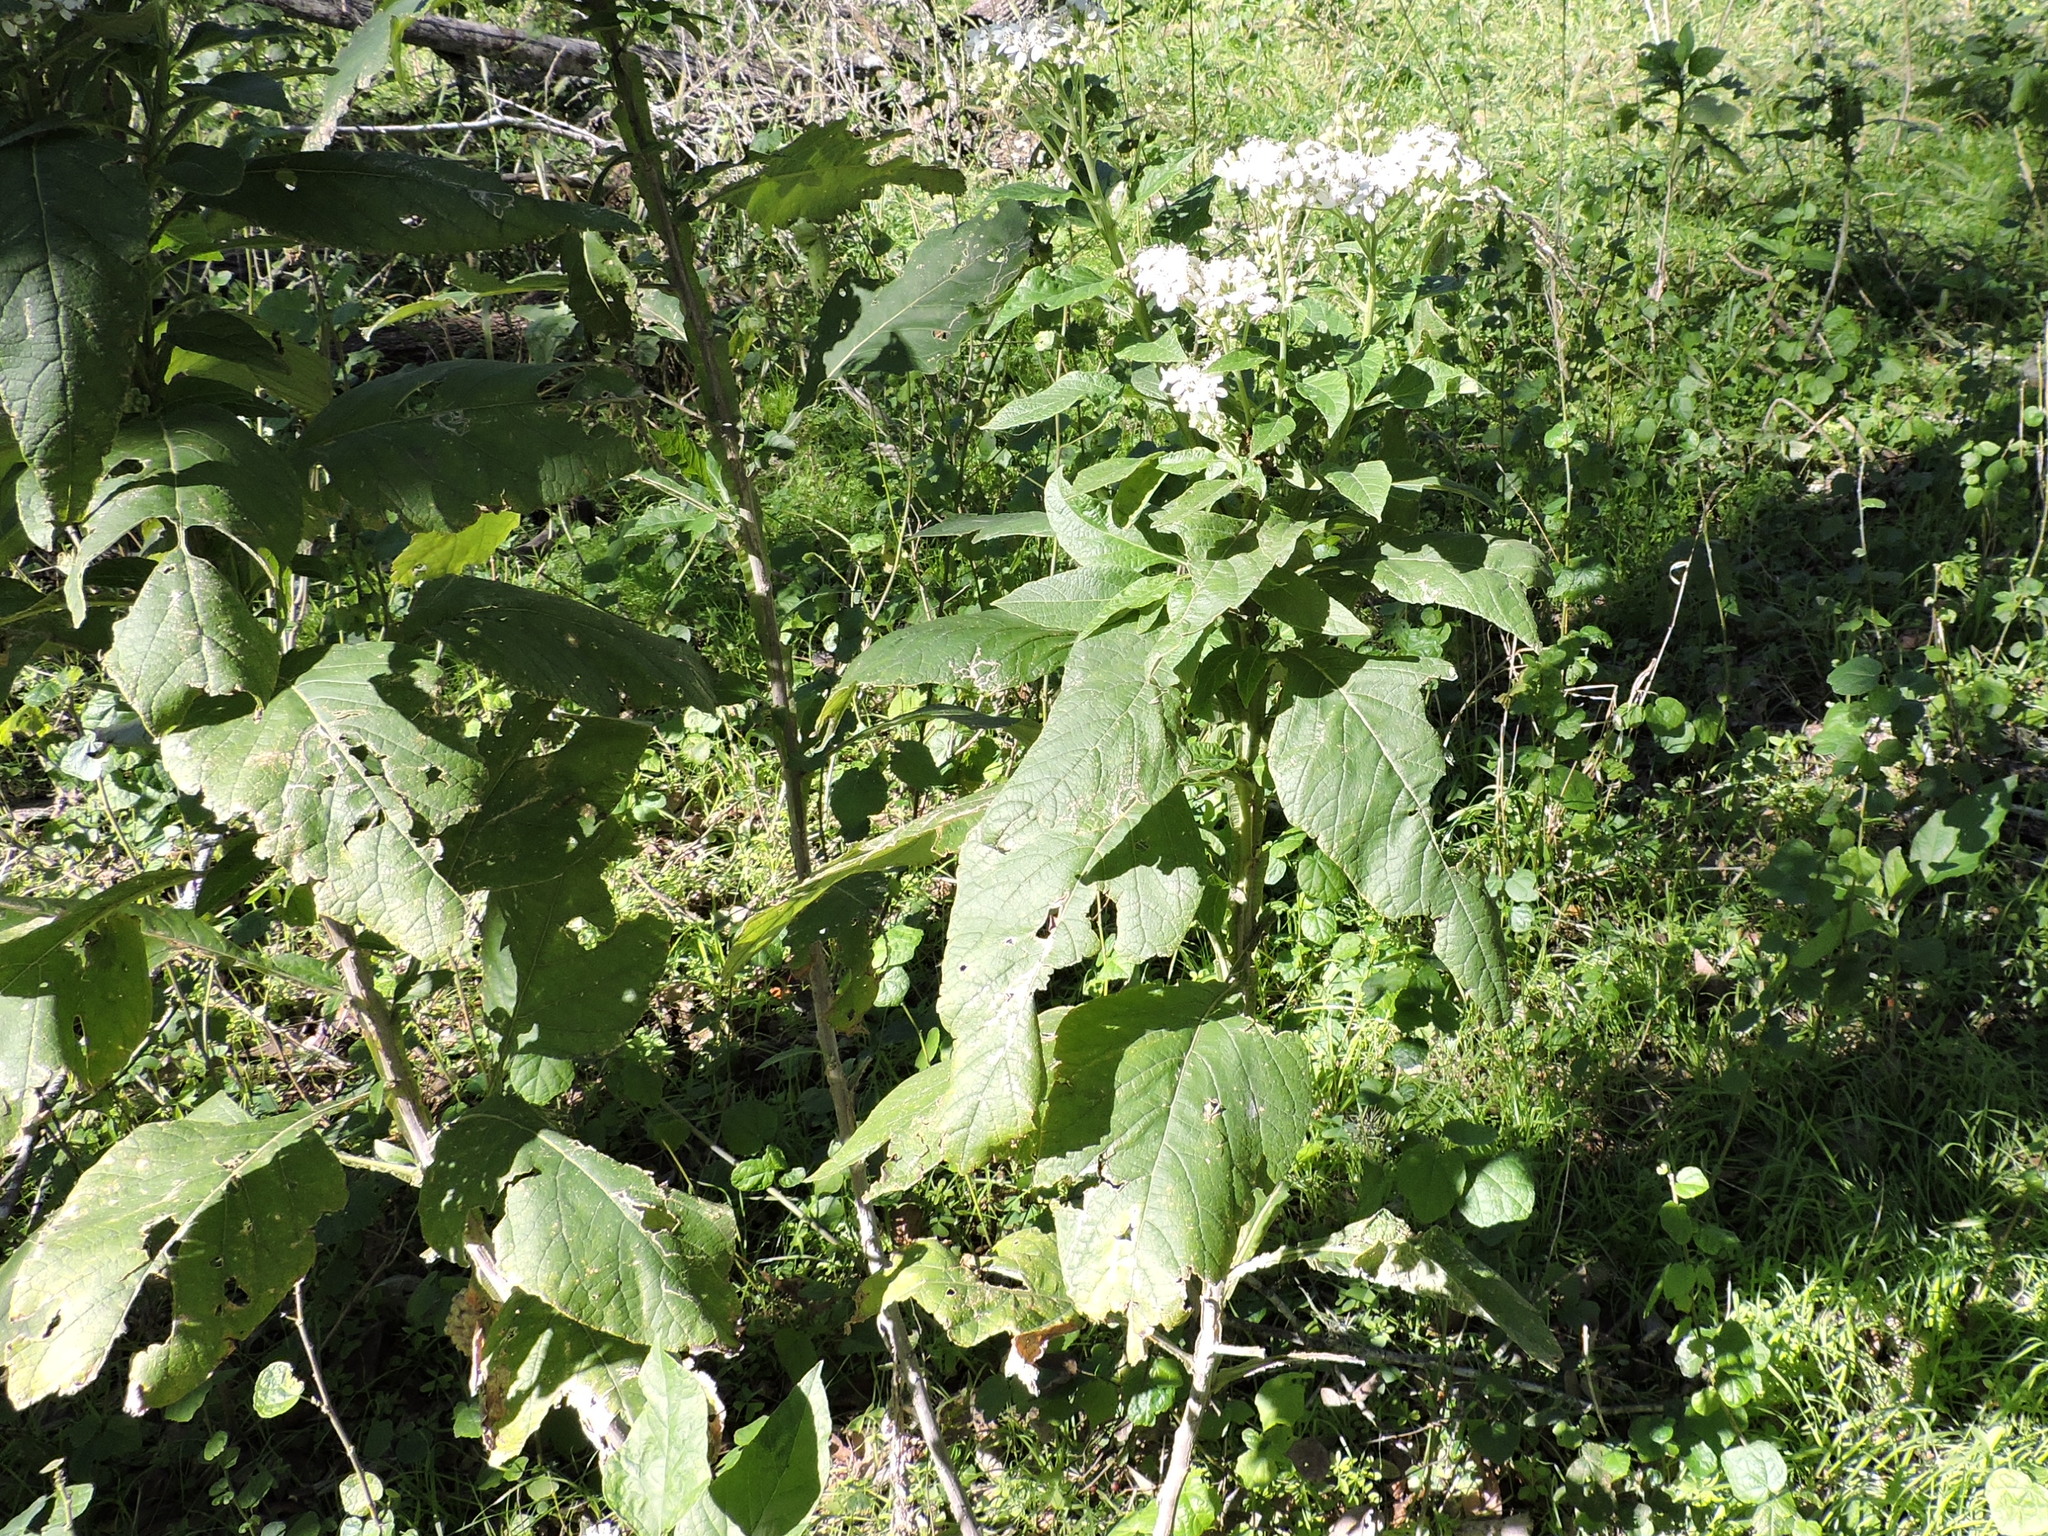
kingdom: Plantae
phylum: Tracheophyta
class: Magnoliopsida
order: Asterales
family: Asteraceae
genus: Verbesina
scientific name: Verbesina virginica
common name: Frostweed
